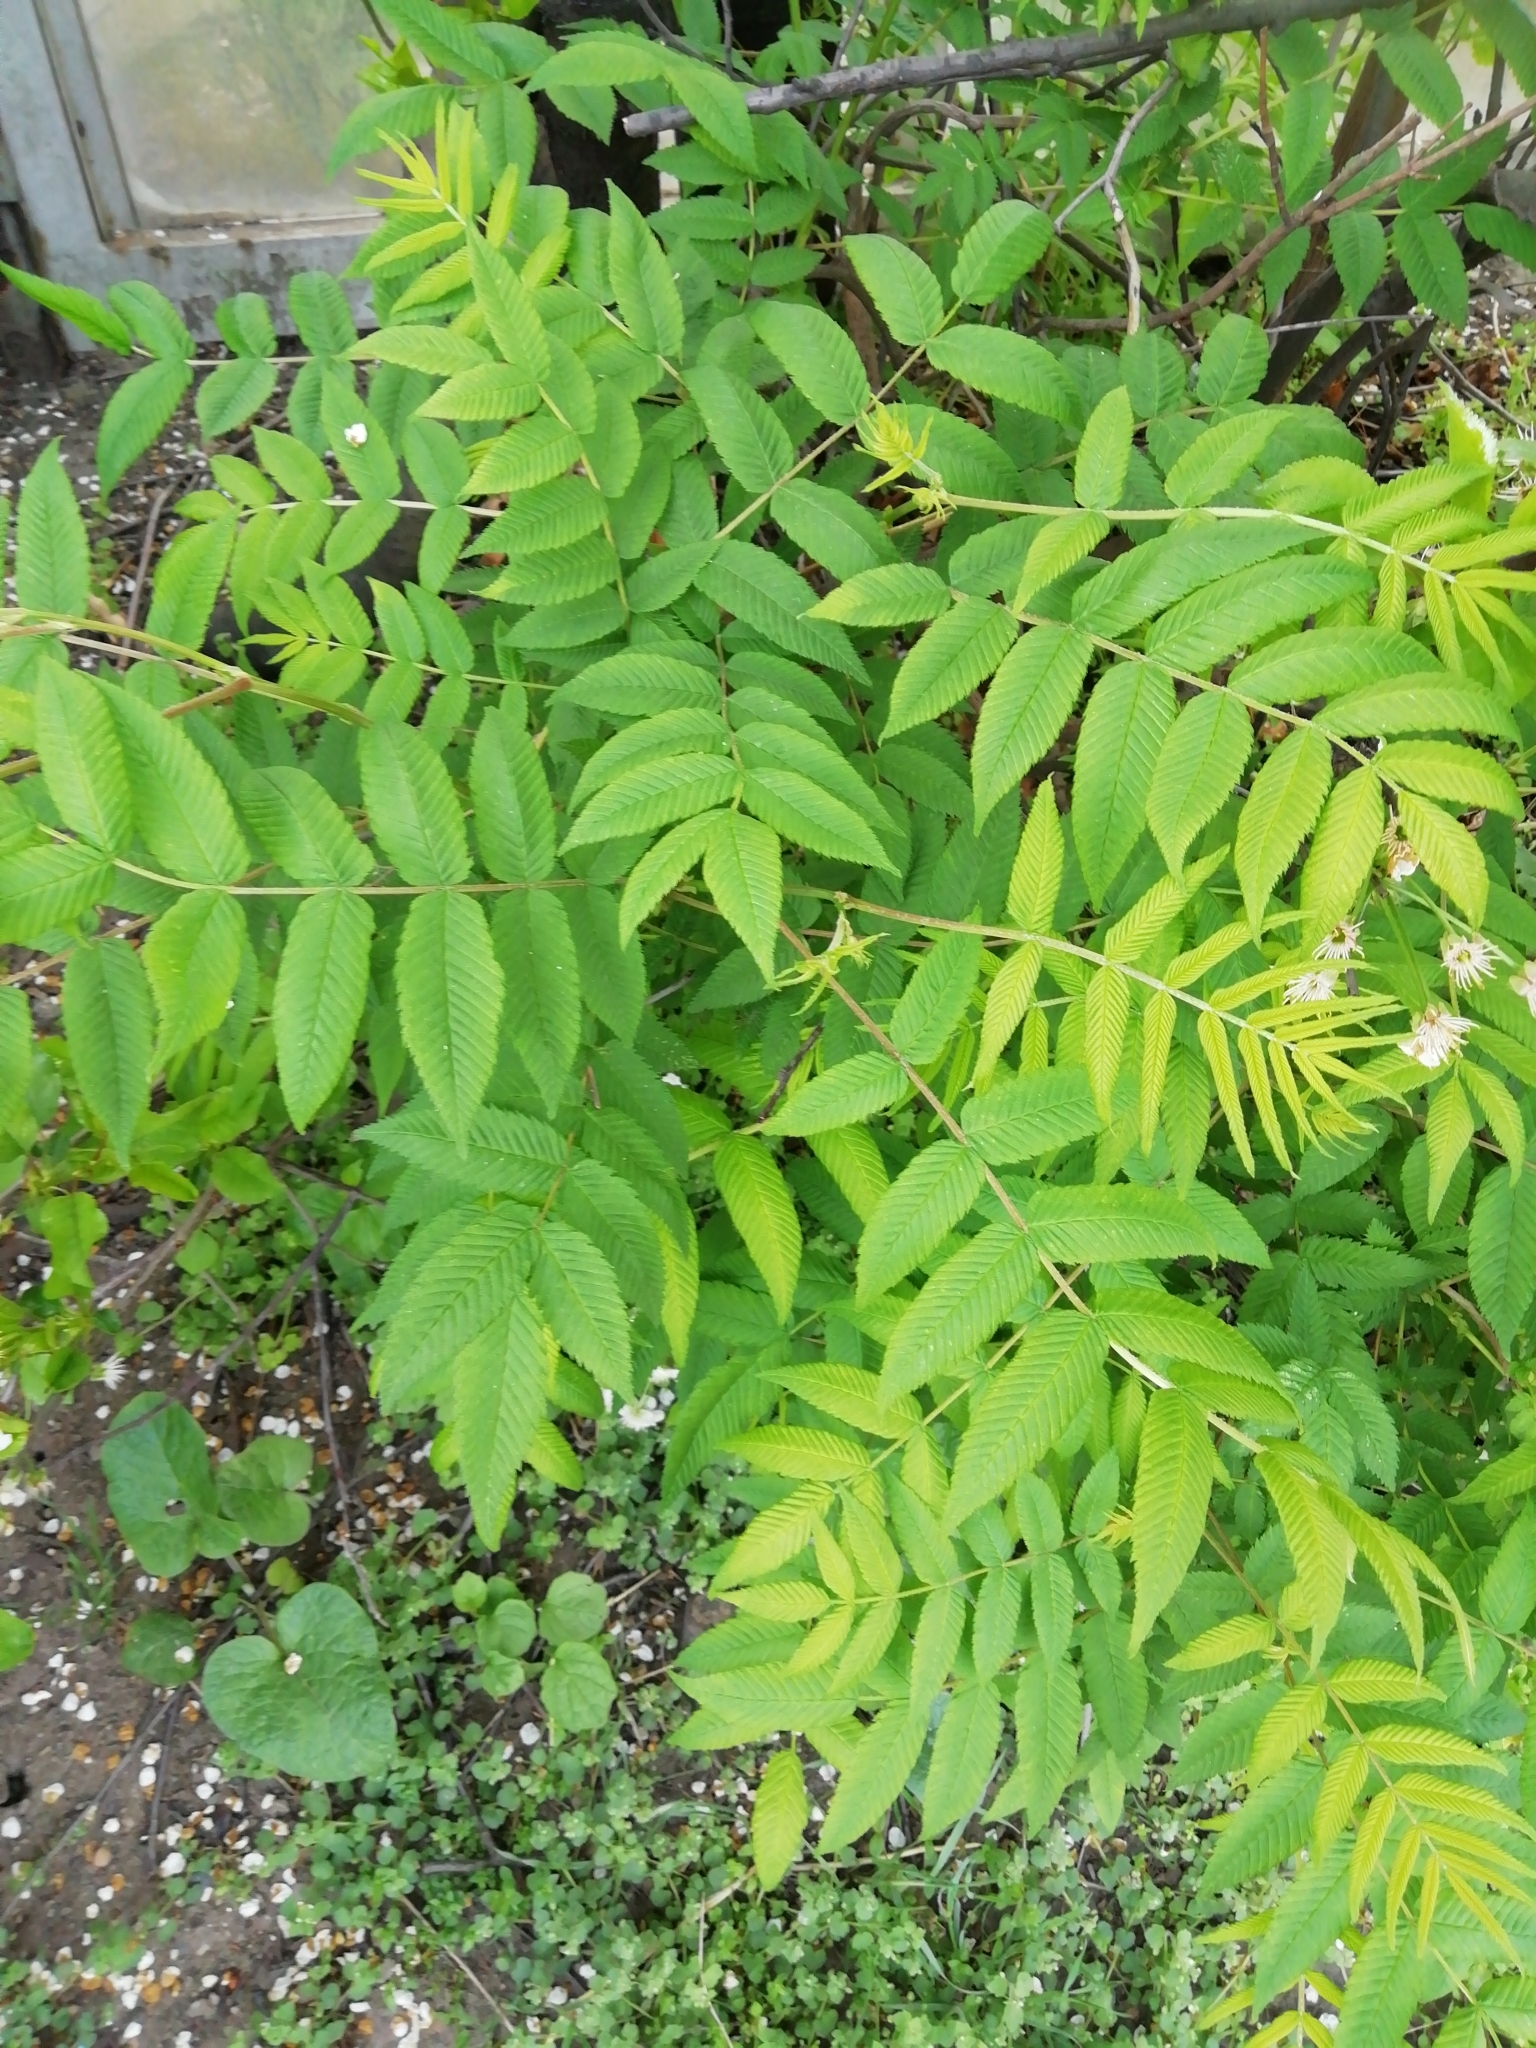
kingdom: Plantae
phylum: Tracheophyta
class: Magnoliopsida
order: Rosales
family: Rosaceae
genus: Sorbaria
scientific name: Sorbaria sorbifolia
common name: False spiraea
